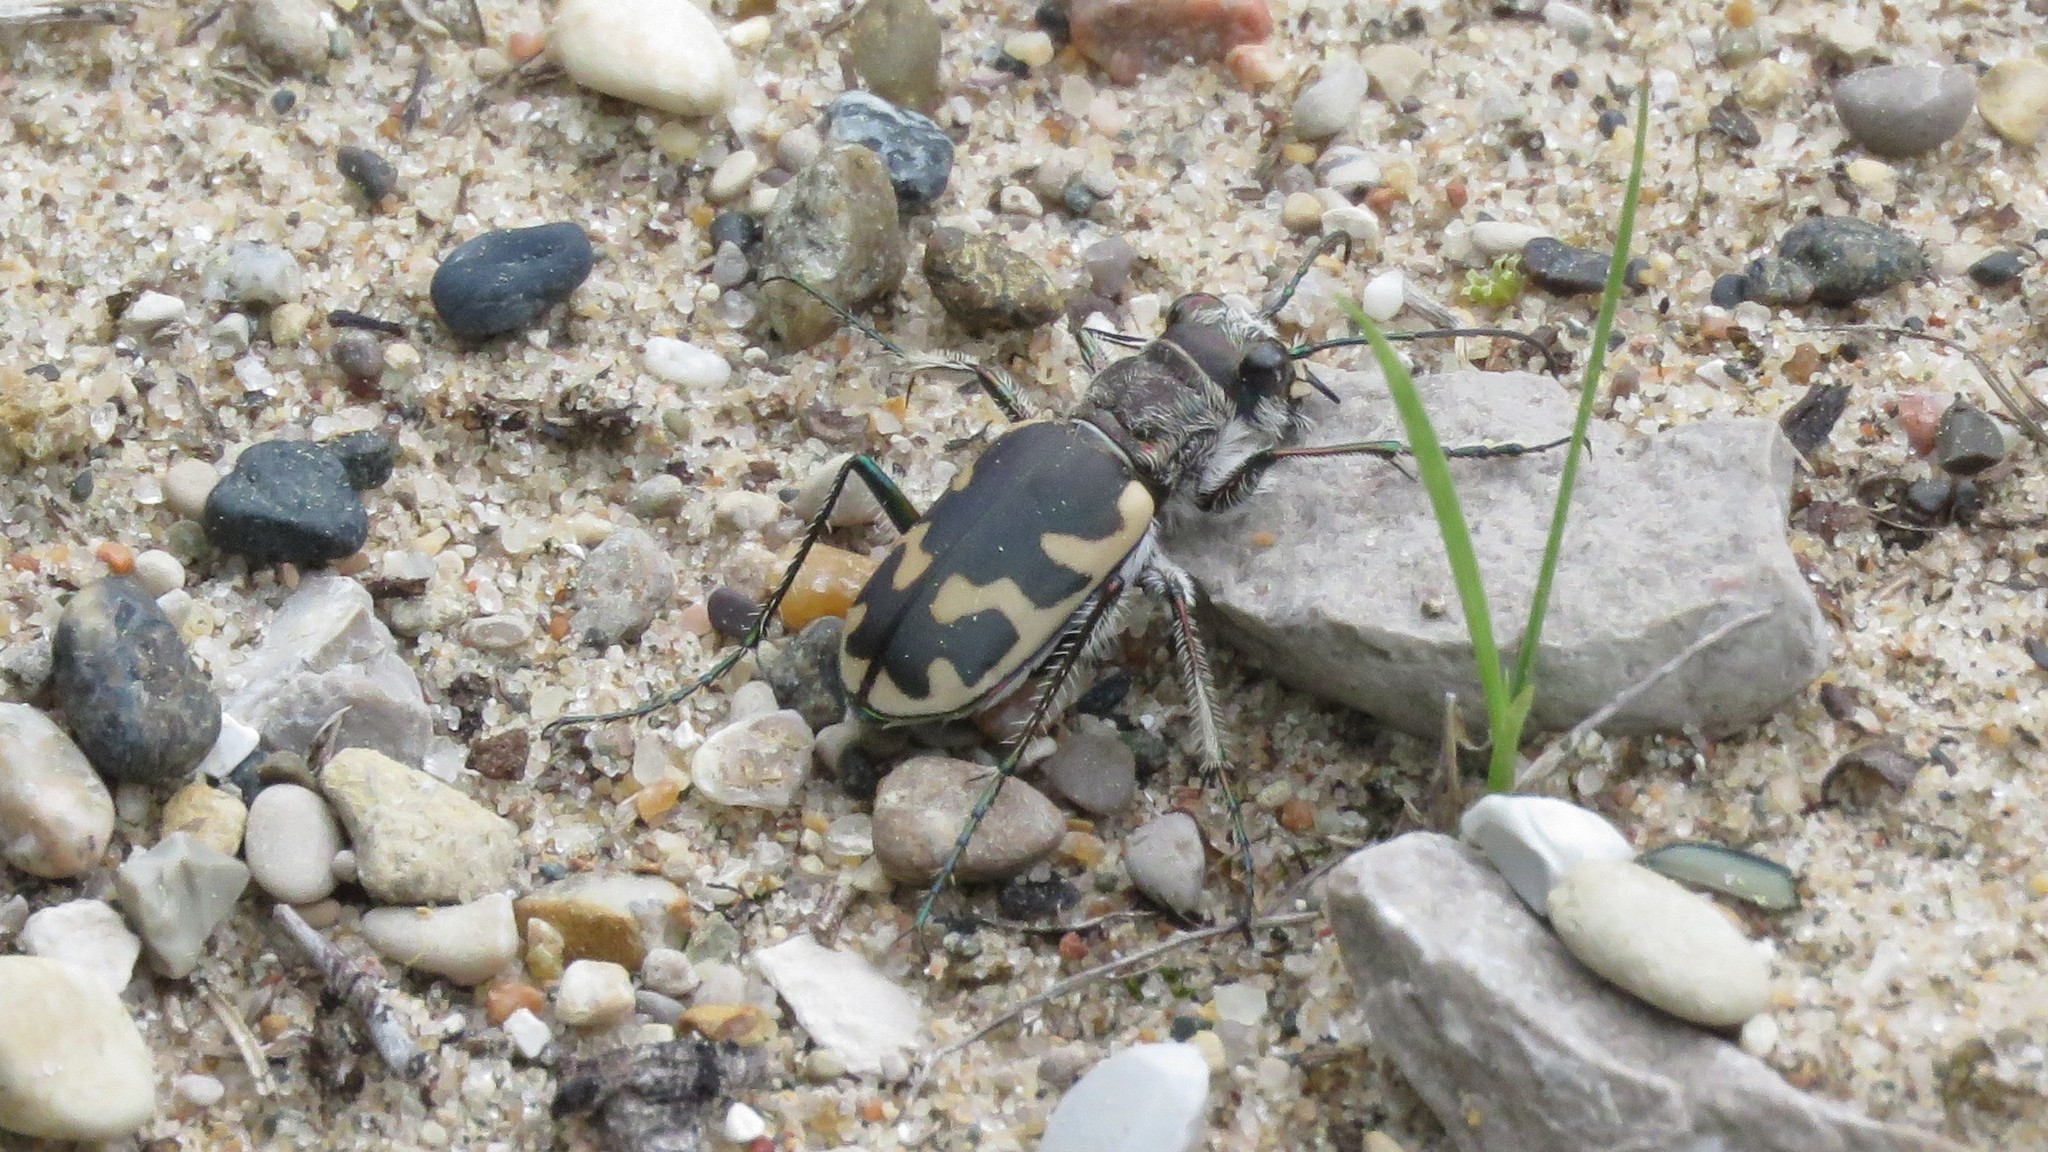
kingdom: Animalia
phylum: Arthropoda
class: Insecta
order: Coleoptera
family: Carabidae
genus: Cicindela
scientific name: Cicindela formosa
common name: Big sand tiger beetle
